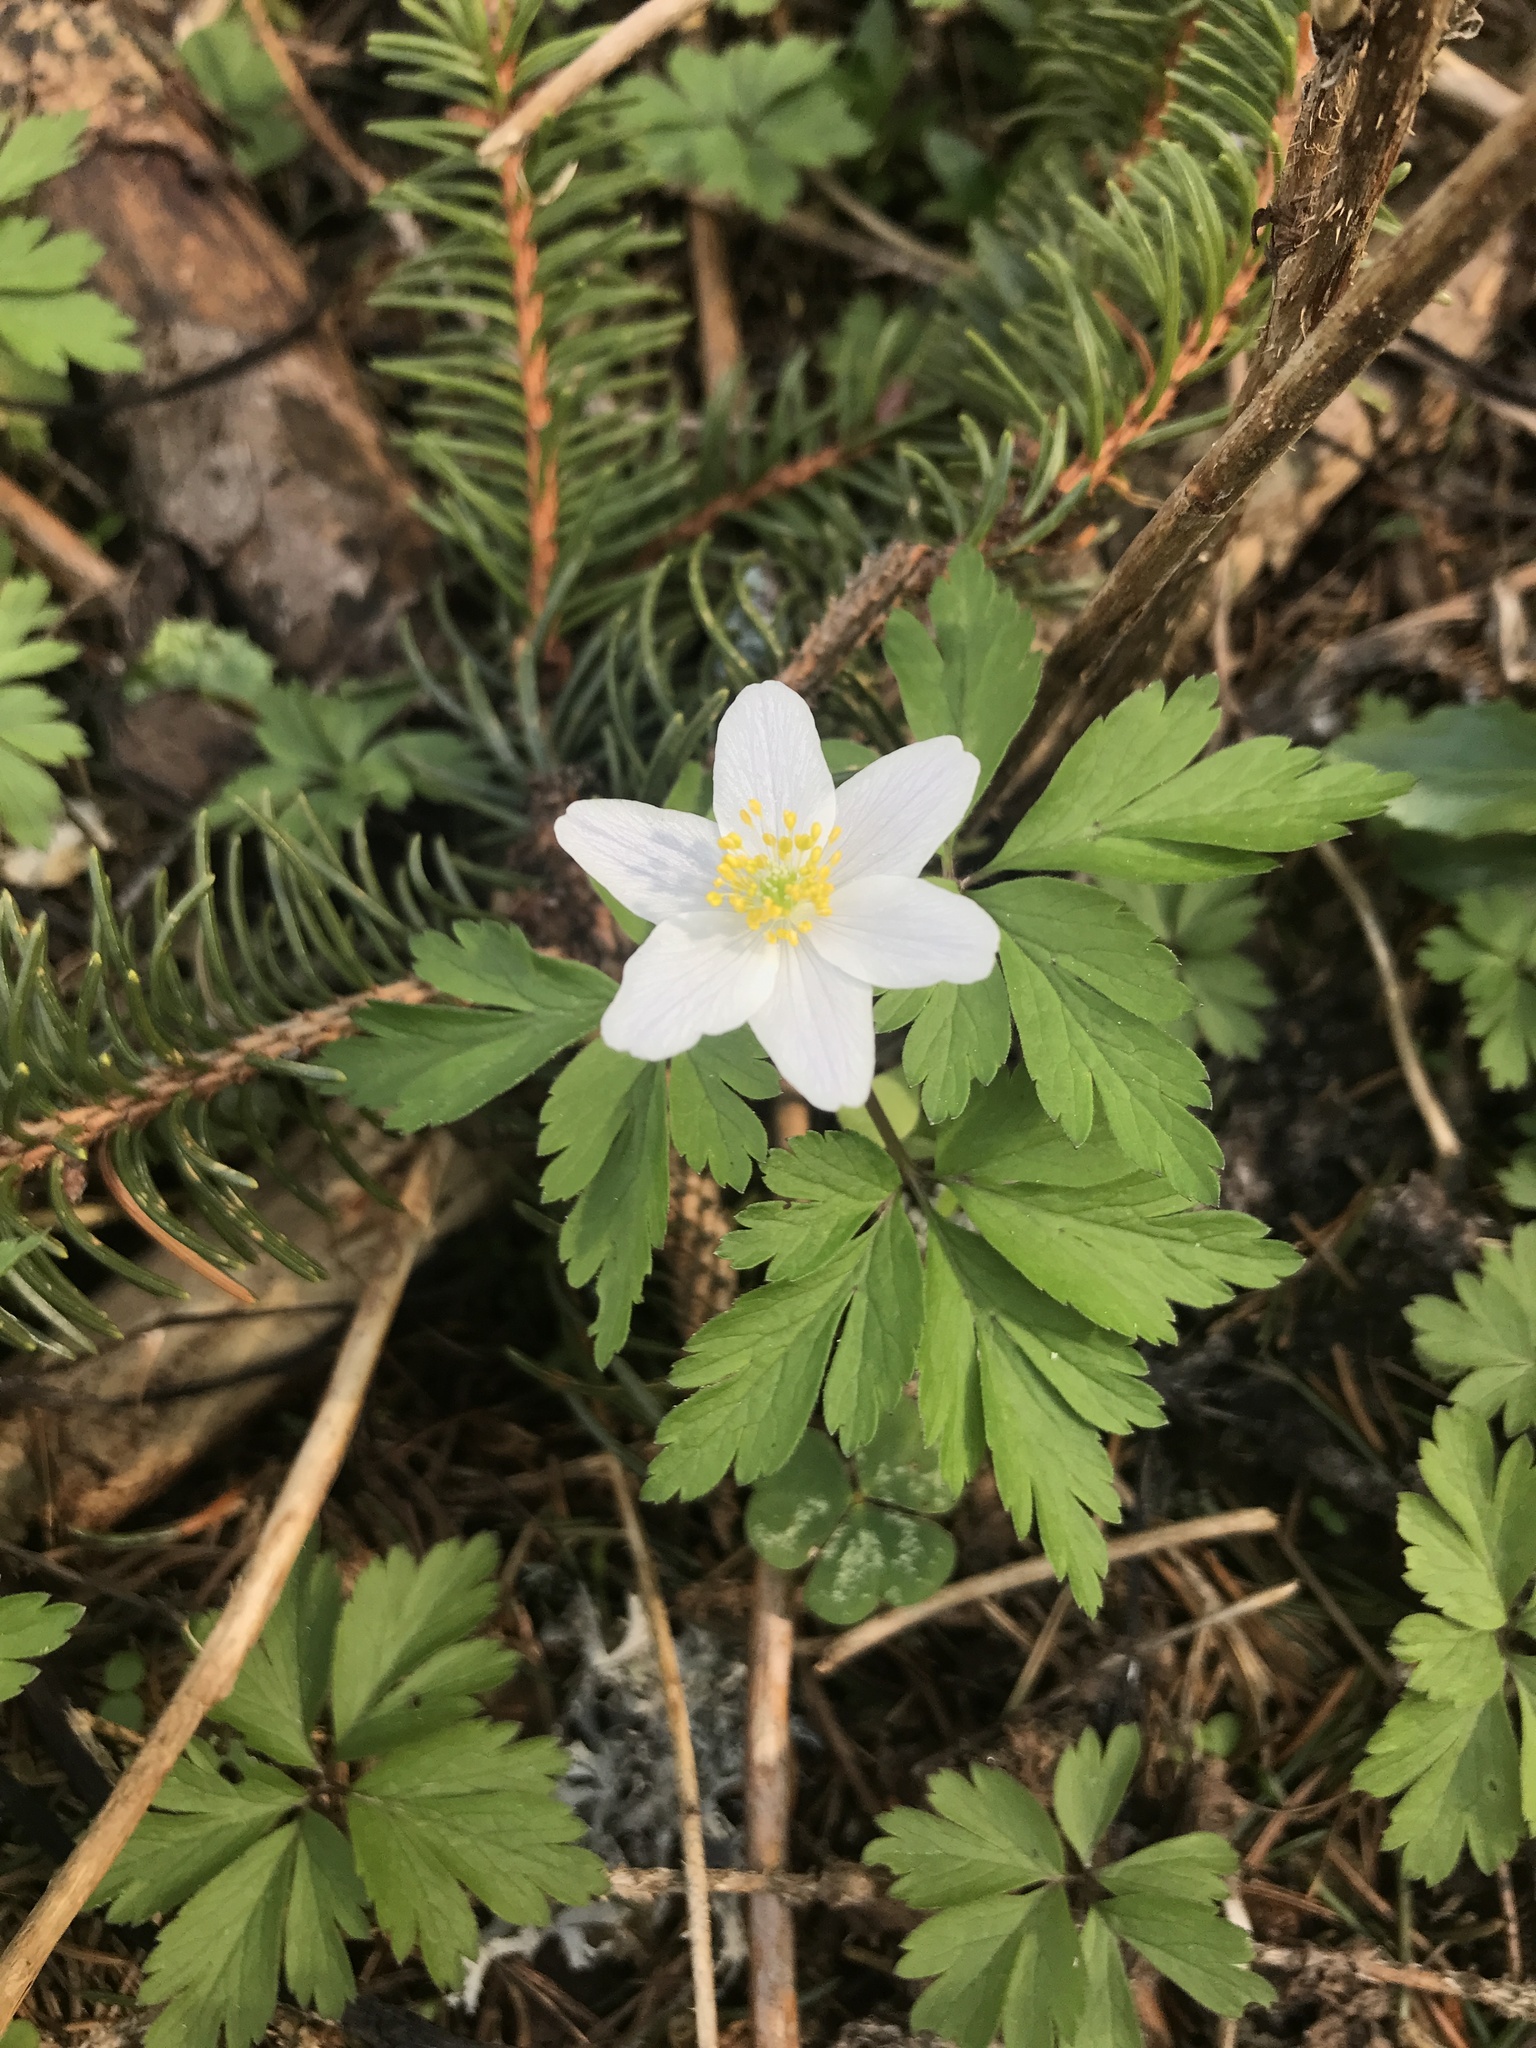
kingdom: Plantae
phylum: Tracheophyta
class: Magnoliopsida
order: Ranunculales
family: Ranunculaceae
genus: Anemone
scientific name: Anemone nemorosa
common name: Wood anemone
